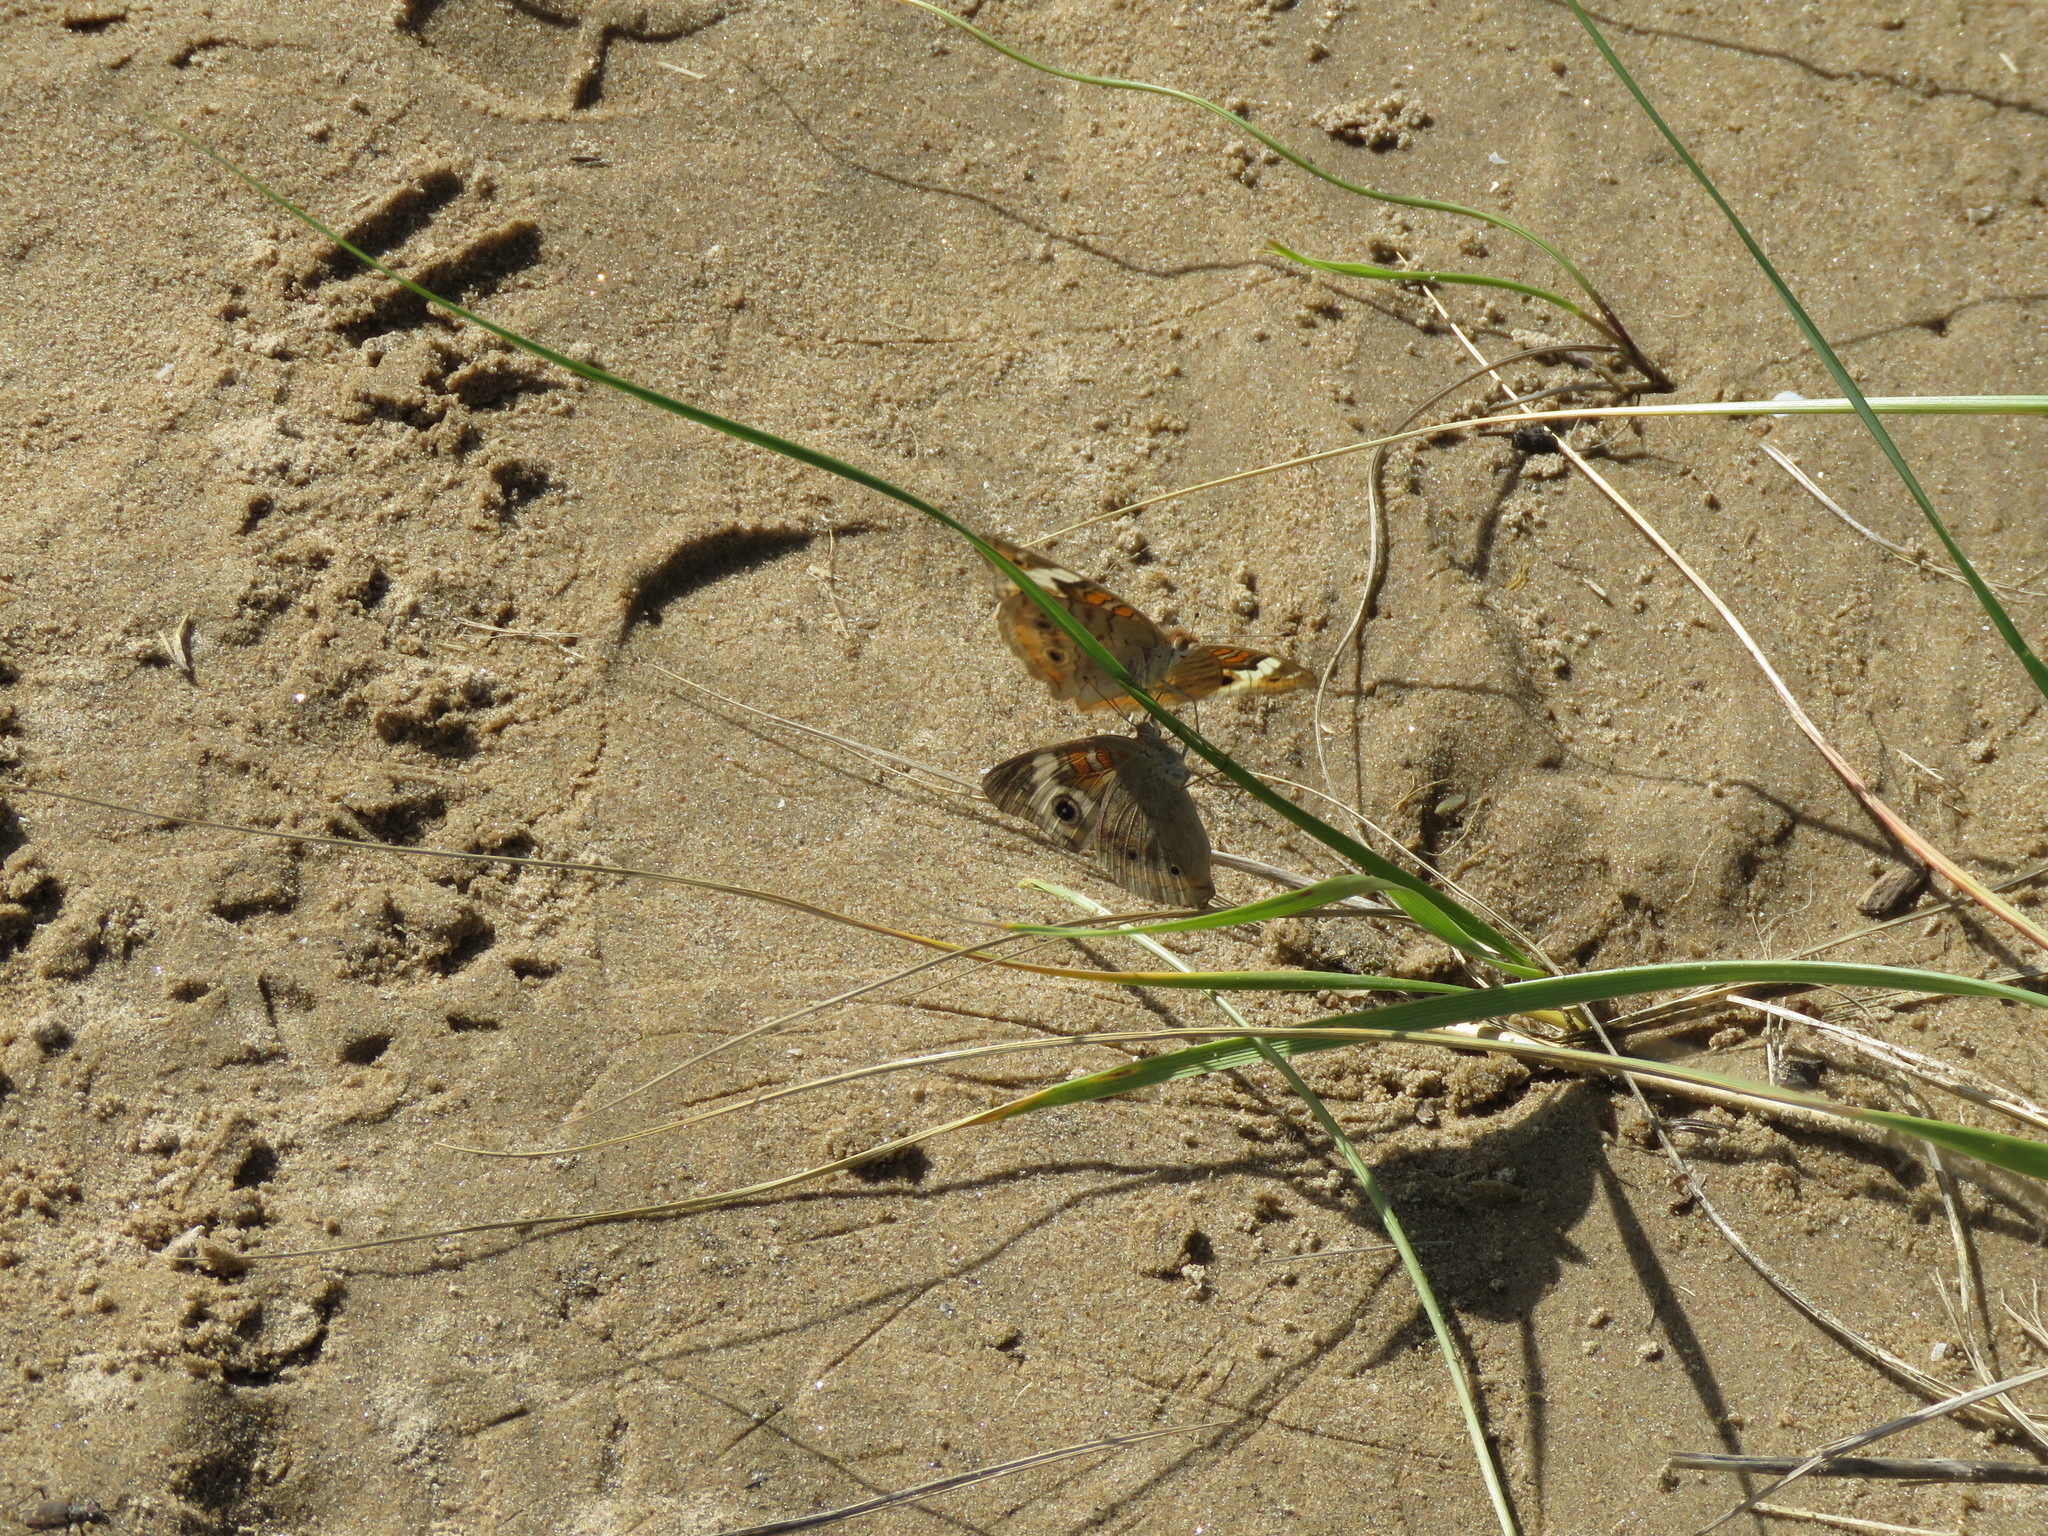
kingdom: Animalia
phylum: Arthropoda
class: Insecta
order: Lepidoptera
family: Nymphalidae
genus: Junonia
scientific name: Junonia coenia
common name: Common buckeye
